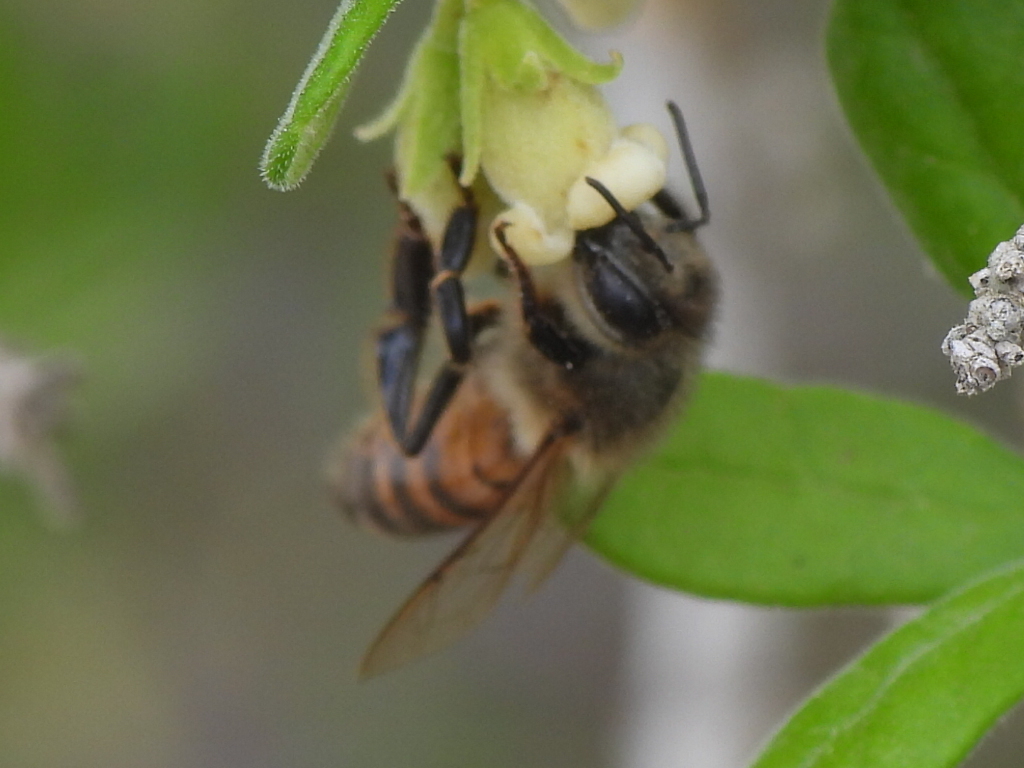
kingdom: Animalia
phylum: Arthropoda
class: Insecta
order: Hymenoptera
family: Apidae
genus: Apis
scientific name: Apis mellifera
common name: Honey bee
